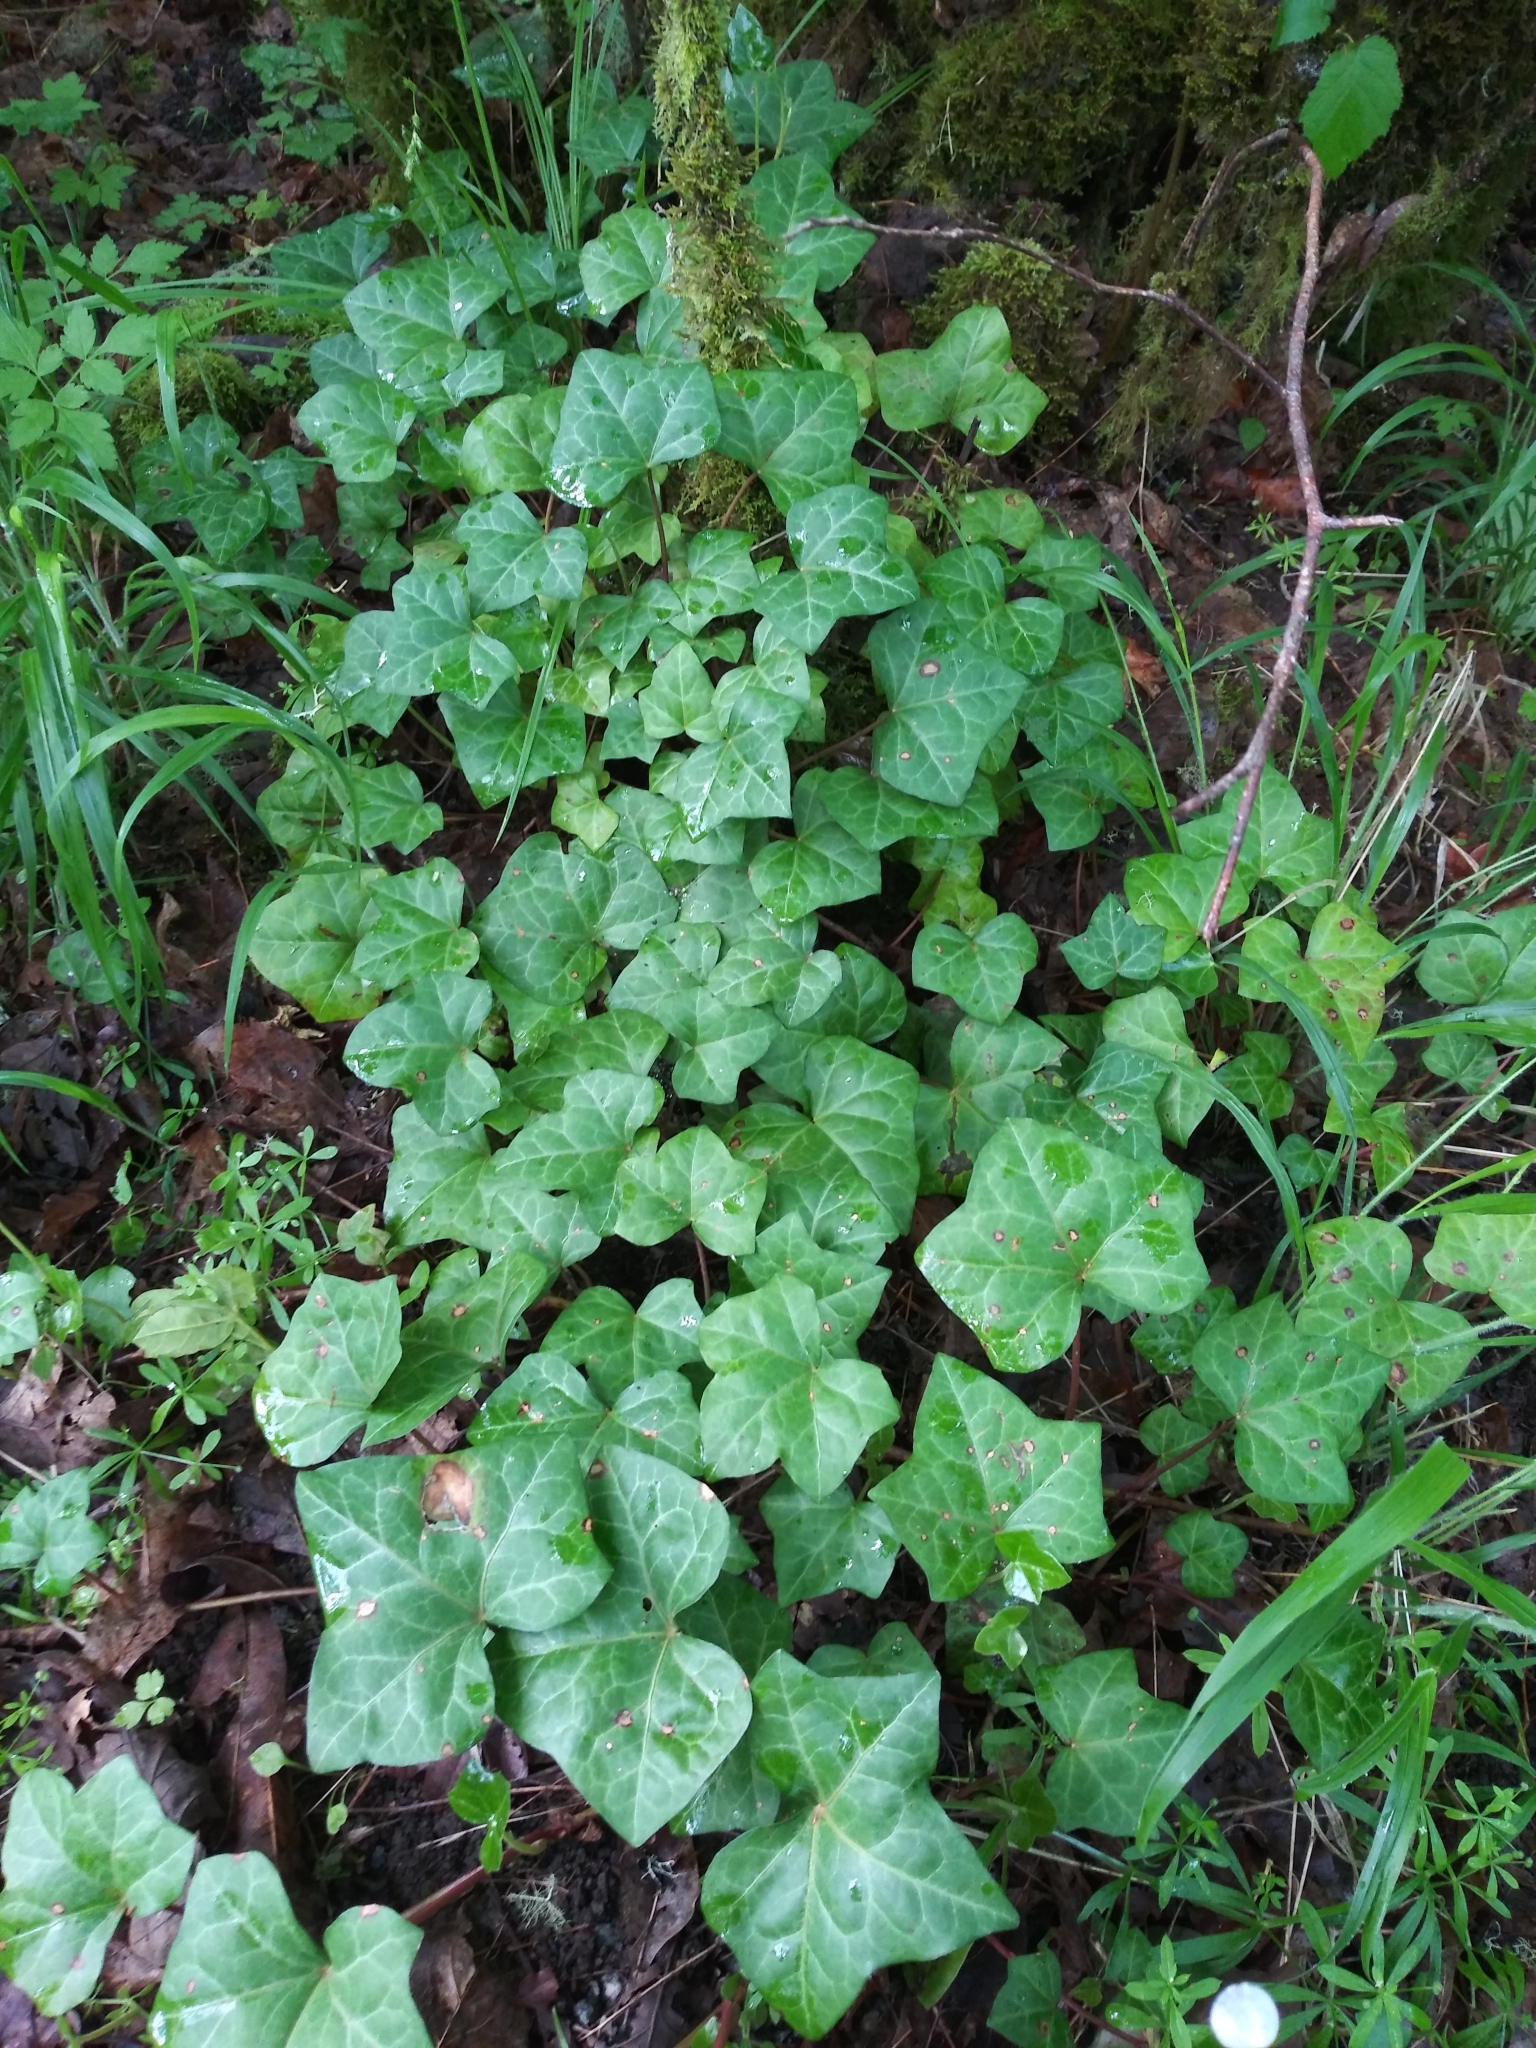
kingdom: Plantae
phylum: Tracheophyta
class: Magnoliopsida
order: Apiales
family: Araliaceae
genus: Hedera
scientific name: Hedera helix
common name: Ivy
